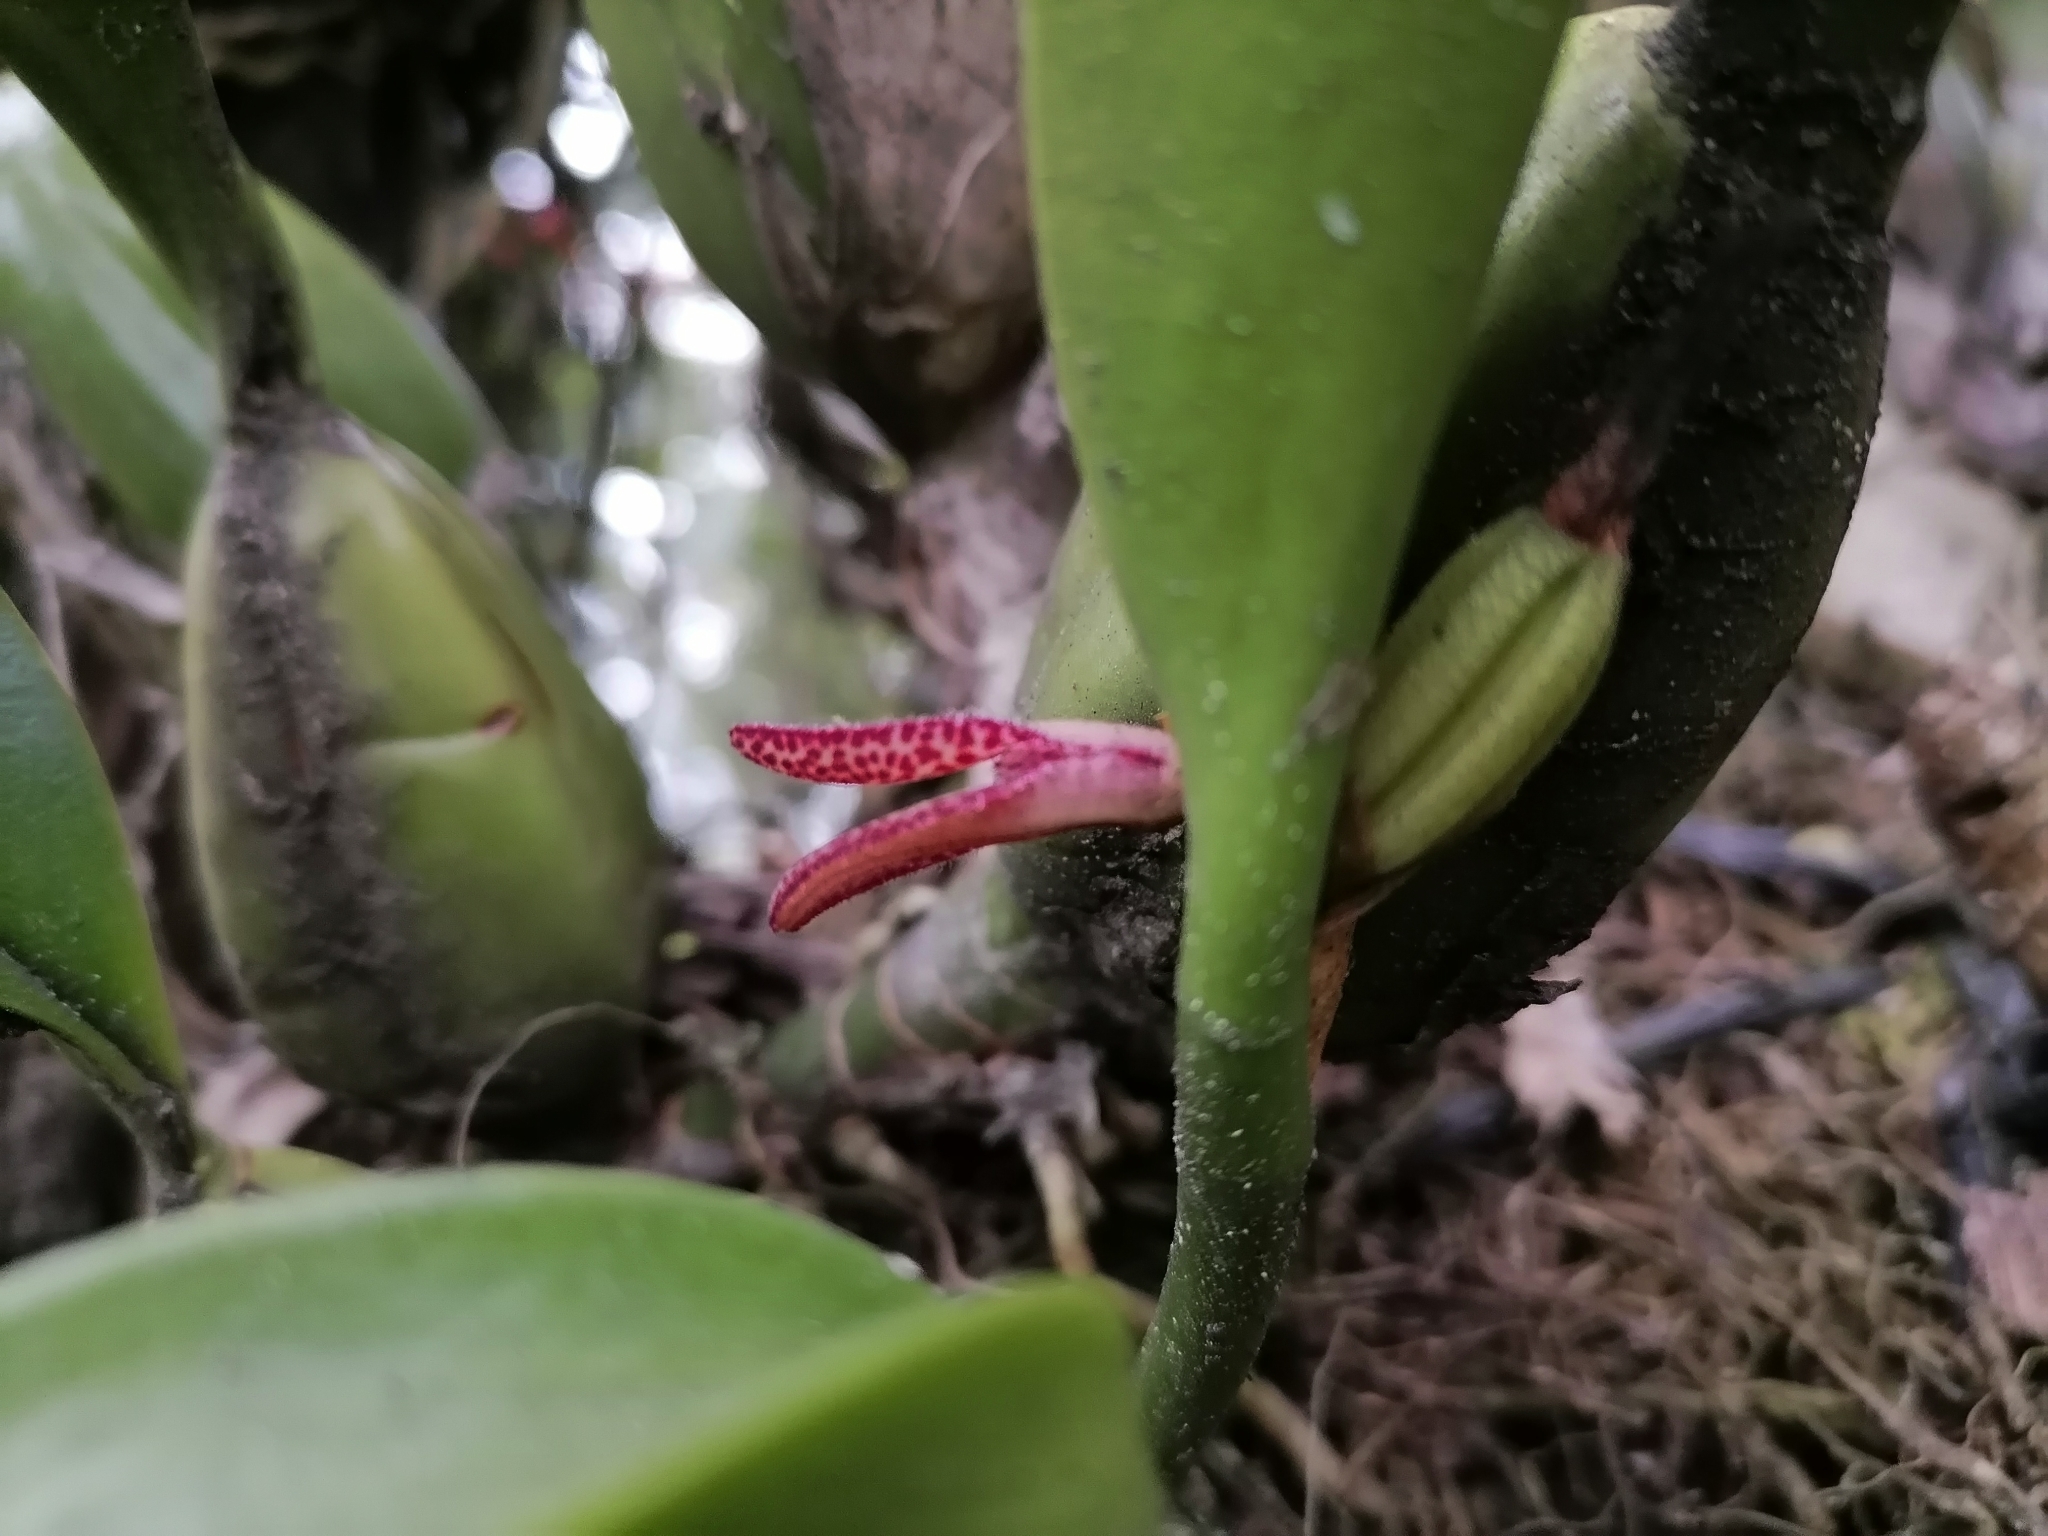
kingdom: Plantae
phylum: Tracheophyta
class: Liliopsida
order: Asparagales
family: Orchidaceae
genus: Restrepiella
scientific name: Restrepiella ophiocephala
